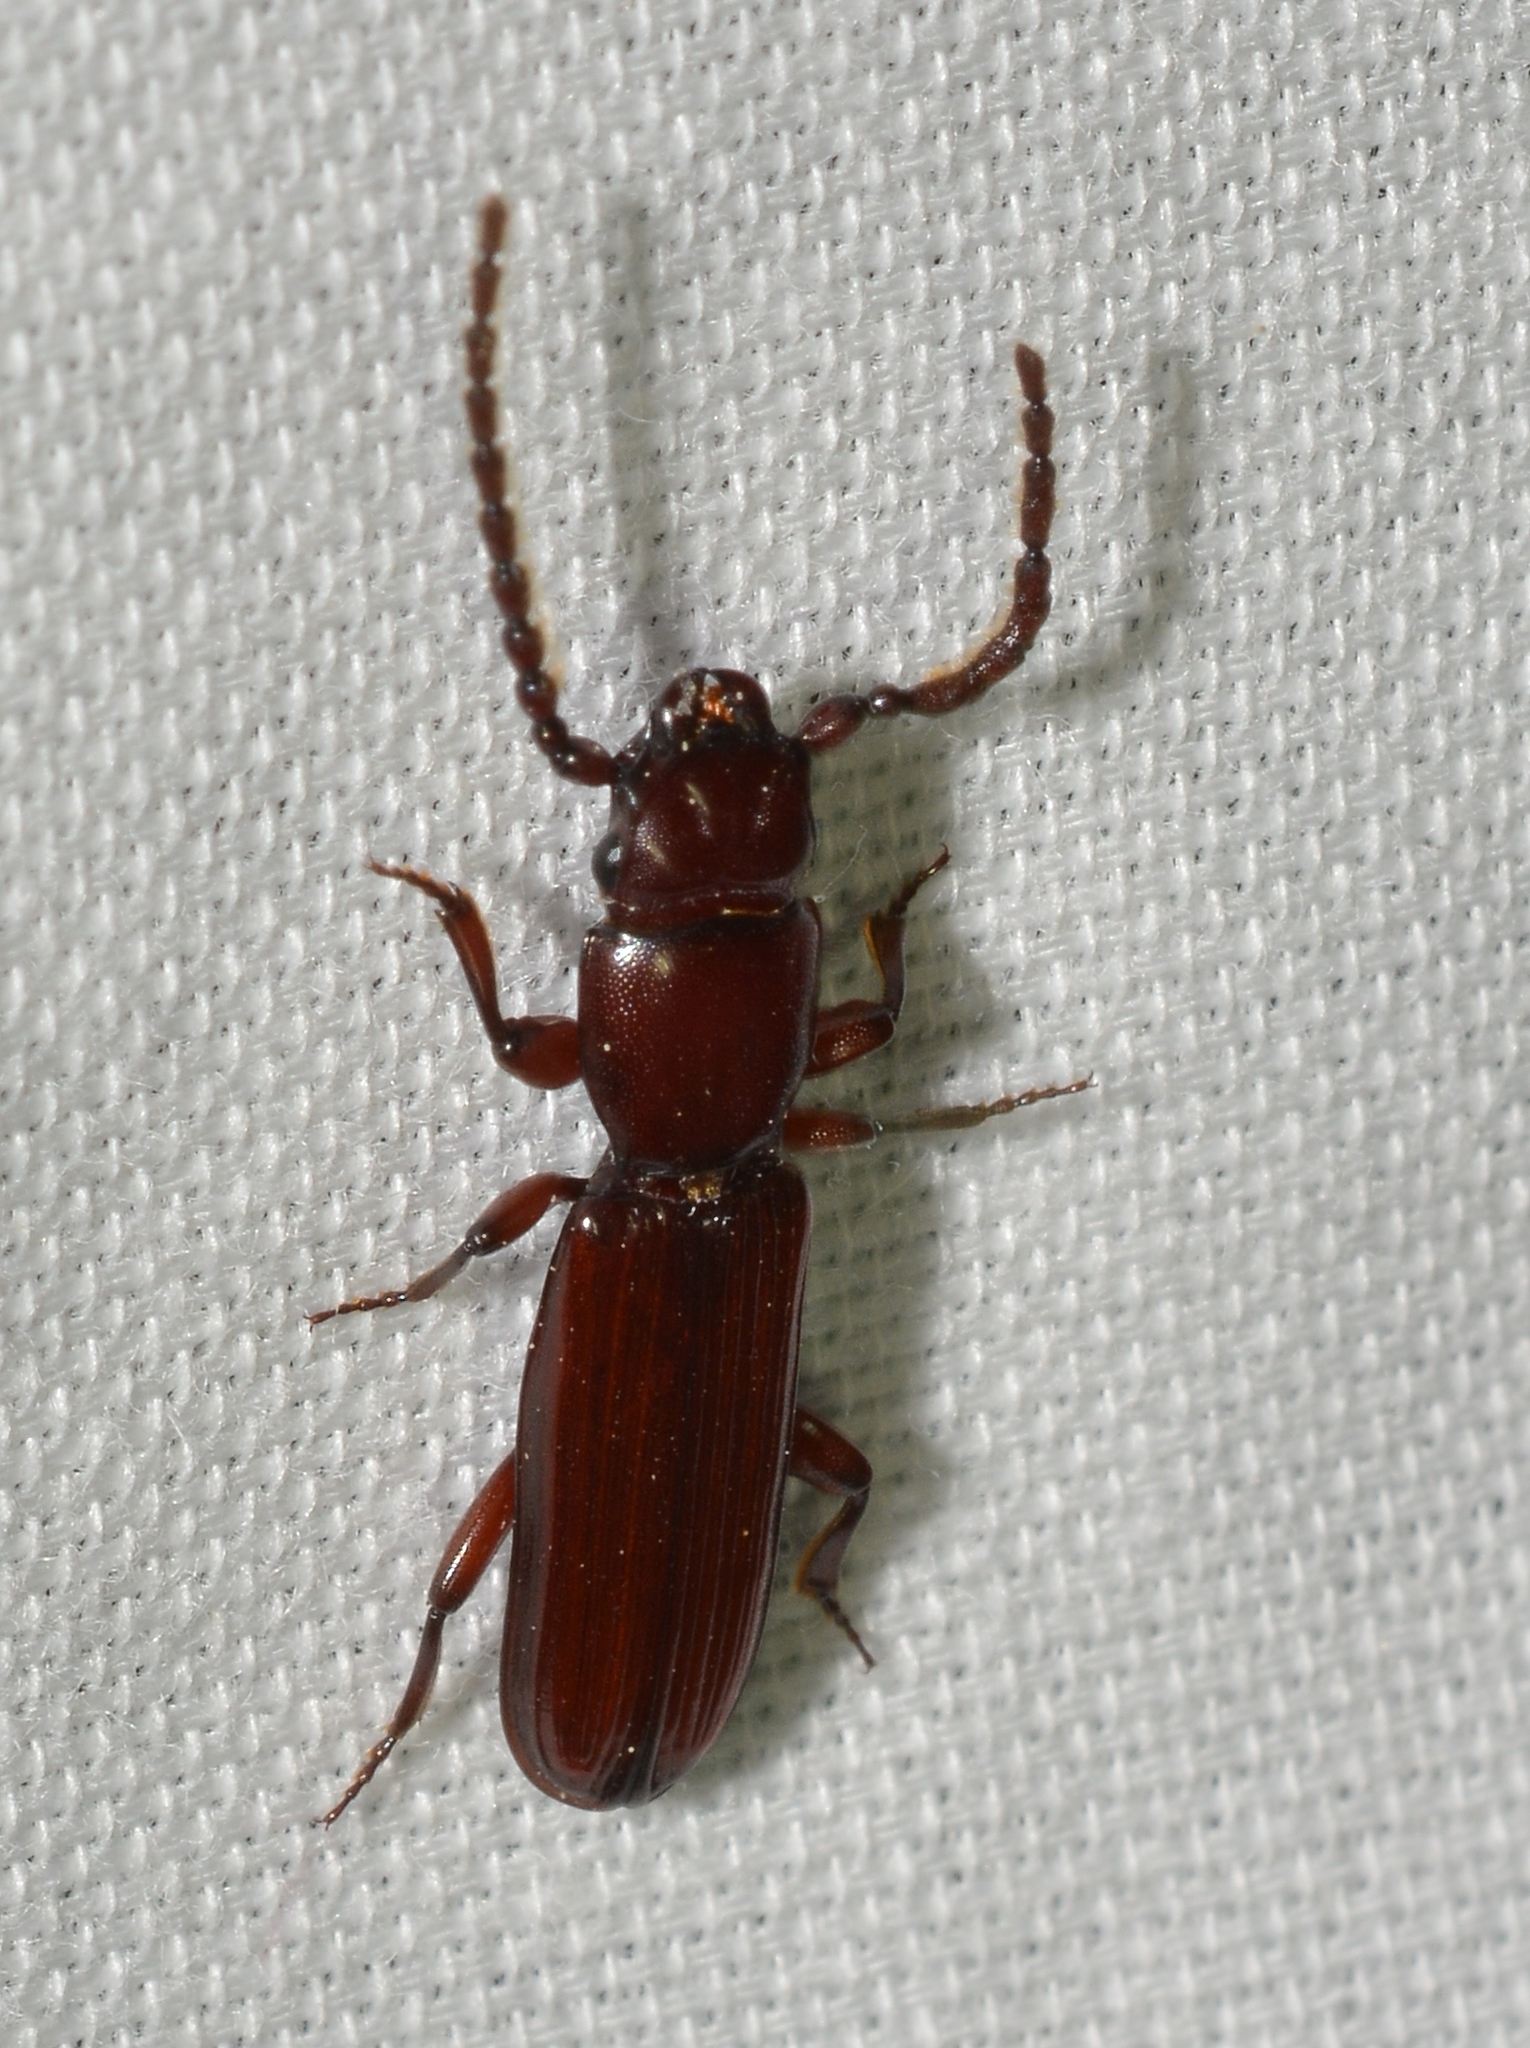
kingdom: Animalia
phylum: Arthropoda
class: Insecta
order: Coleoptera
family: Passandridae
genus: Catogenus
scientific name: Catogenus rufus
